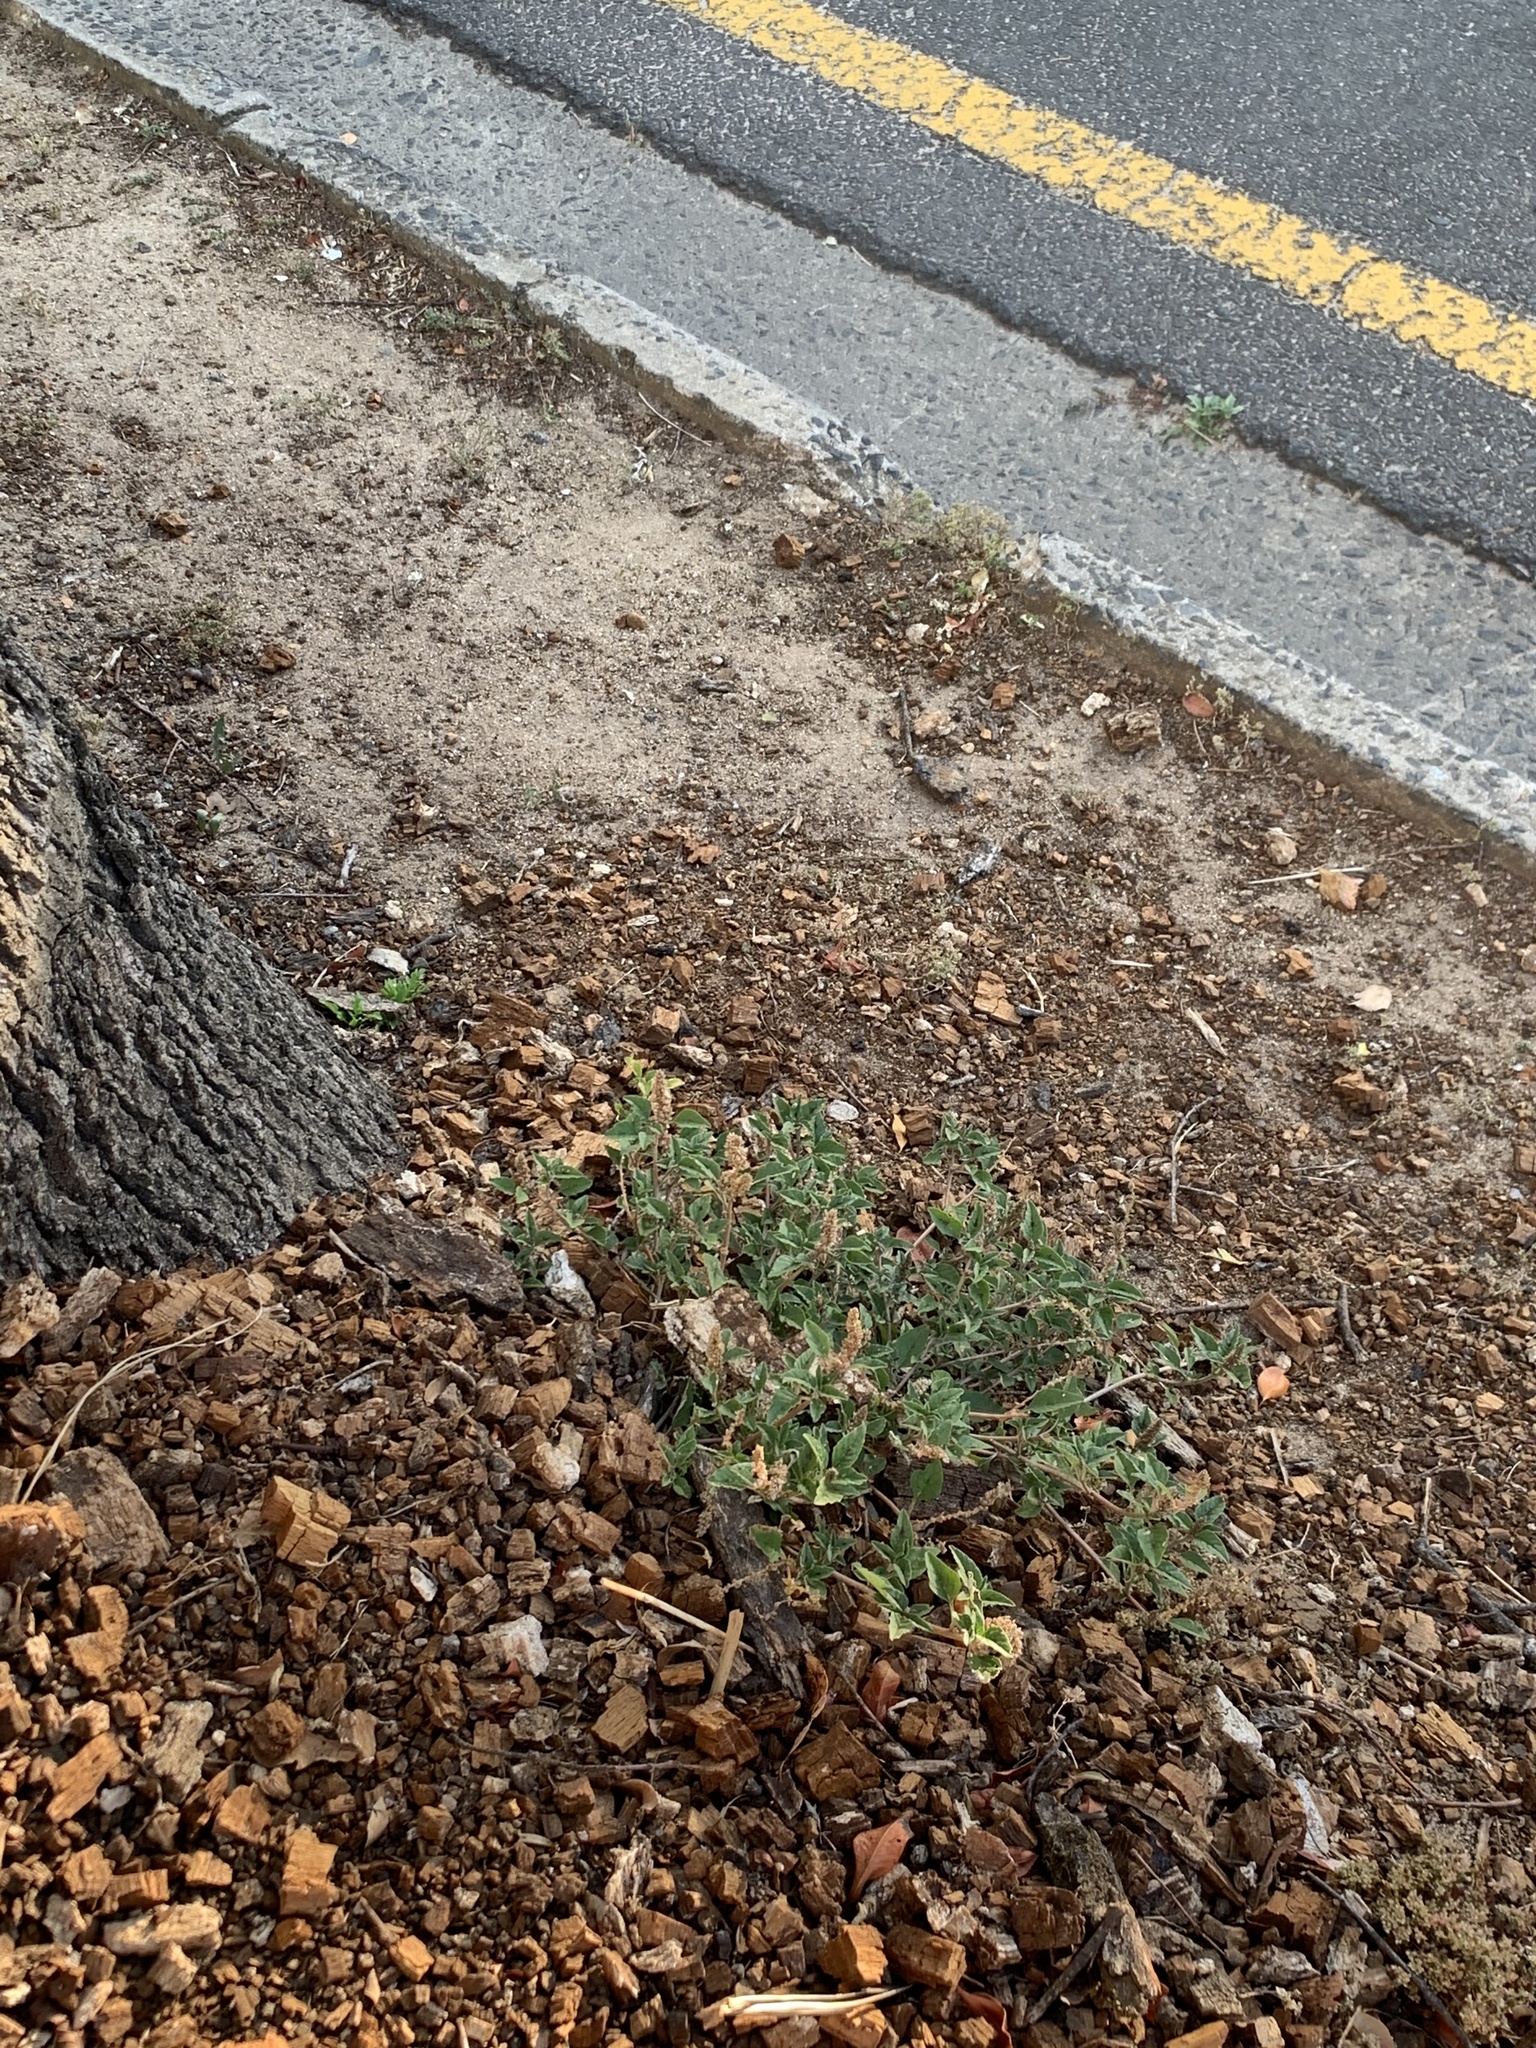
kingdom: Plantae
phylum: Tracheophyta
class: Magnoliopsida
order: Caryophyllales
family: Amaranthaceae
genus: Amaranthus
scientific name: Amaranthus deflexus
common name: Perennial pigweed
